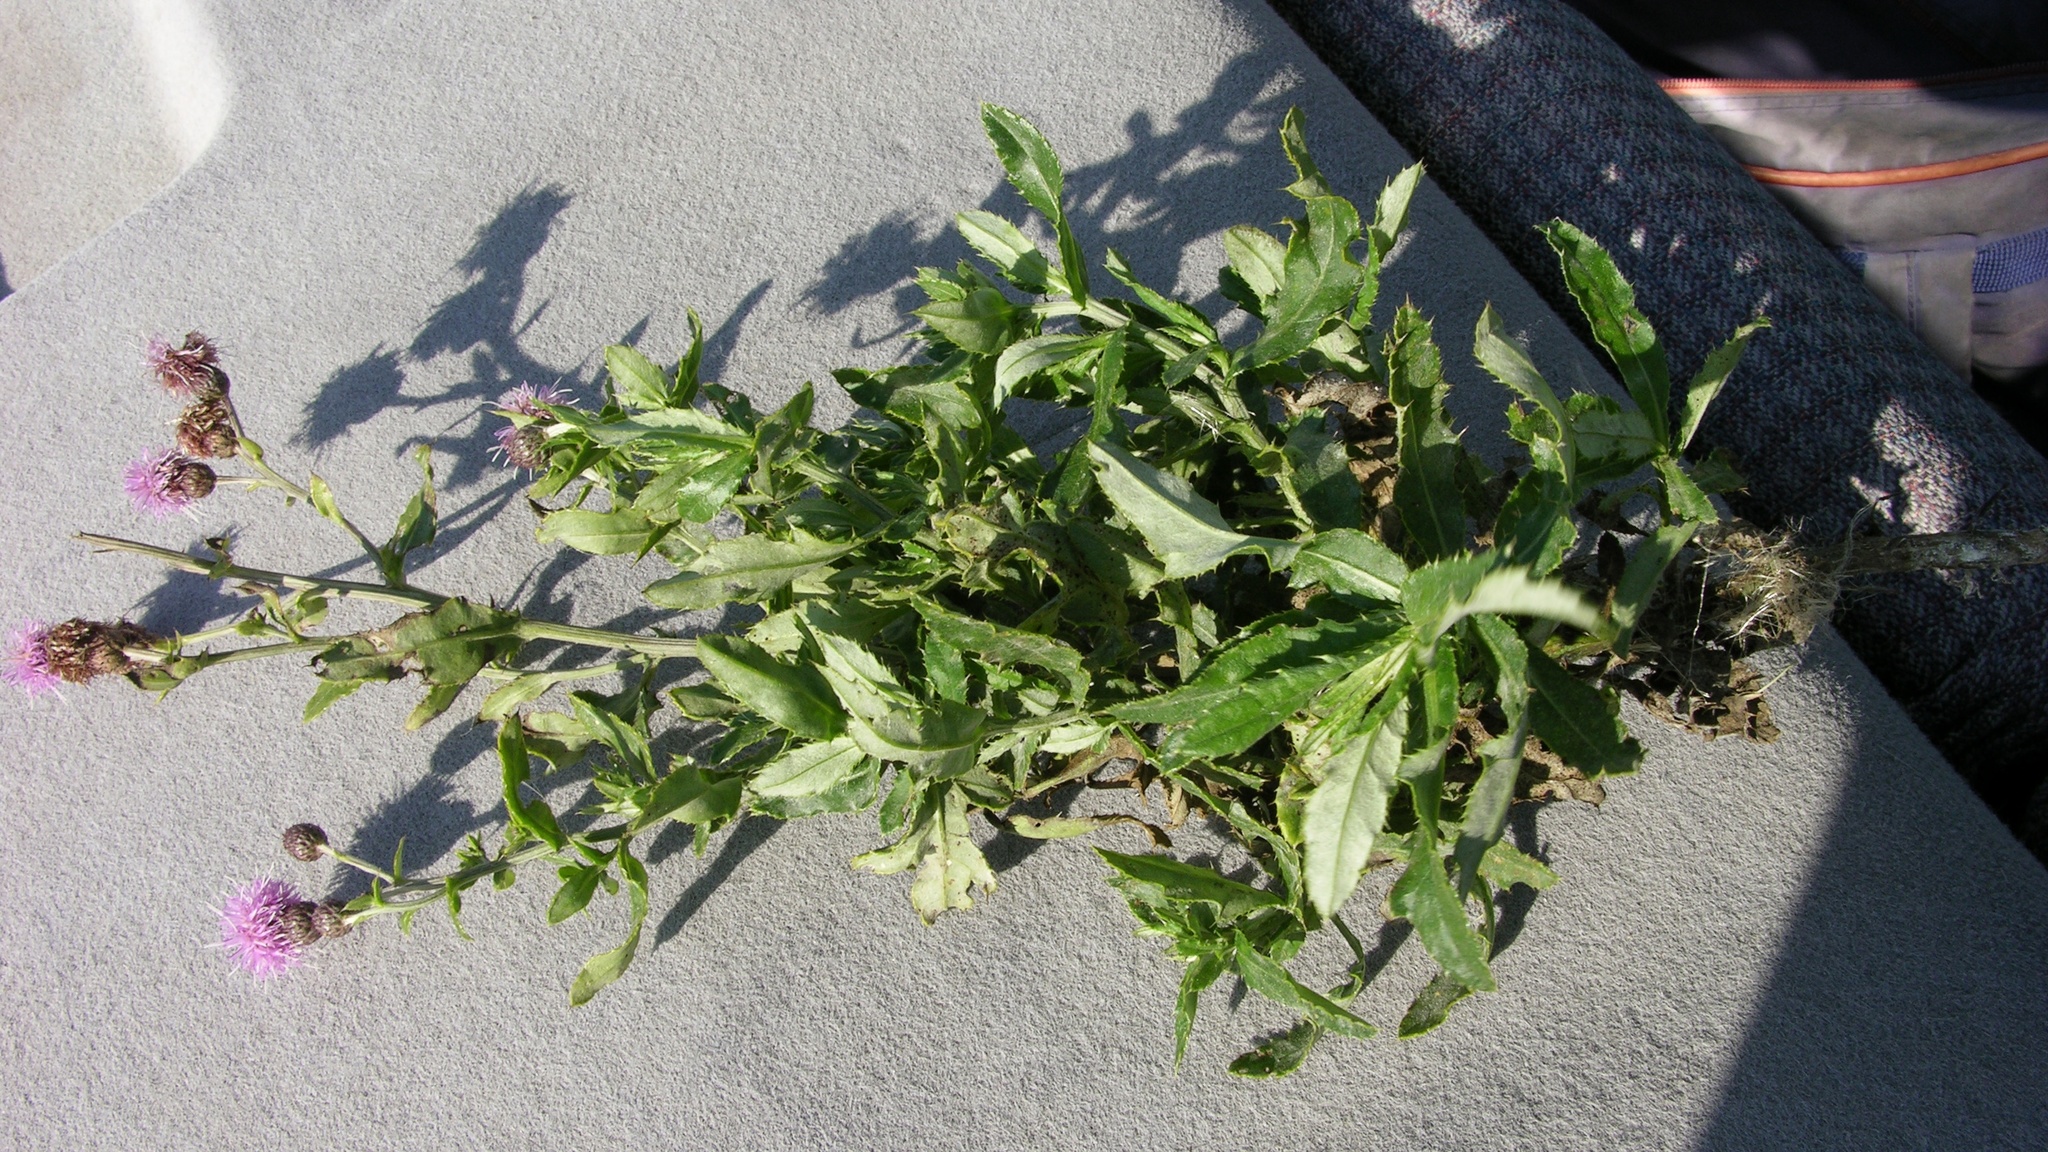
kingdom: Plantae
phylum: Tracheophyta
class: Magnoliopsida
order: Asterales
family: Asteraceae
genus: Cirsium
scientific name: Cirsium arvense
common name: Creeping thistle
